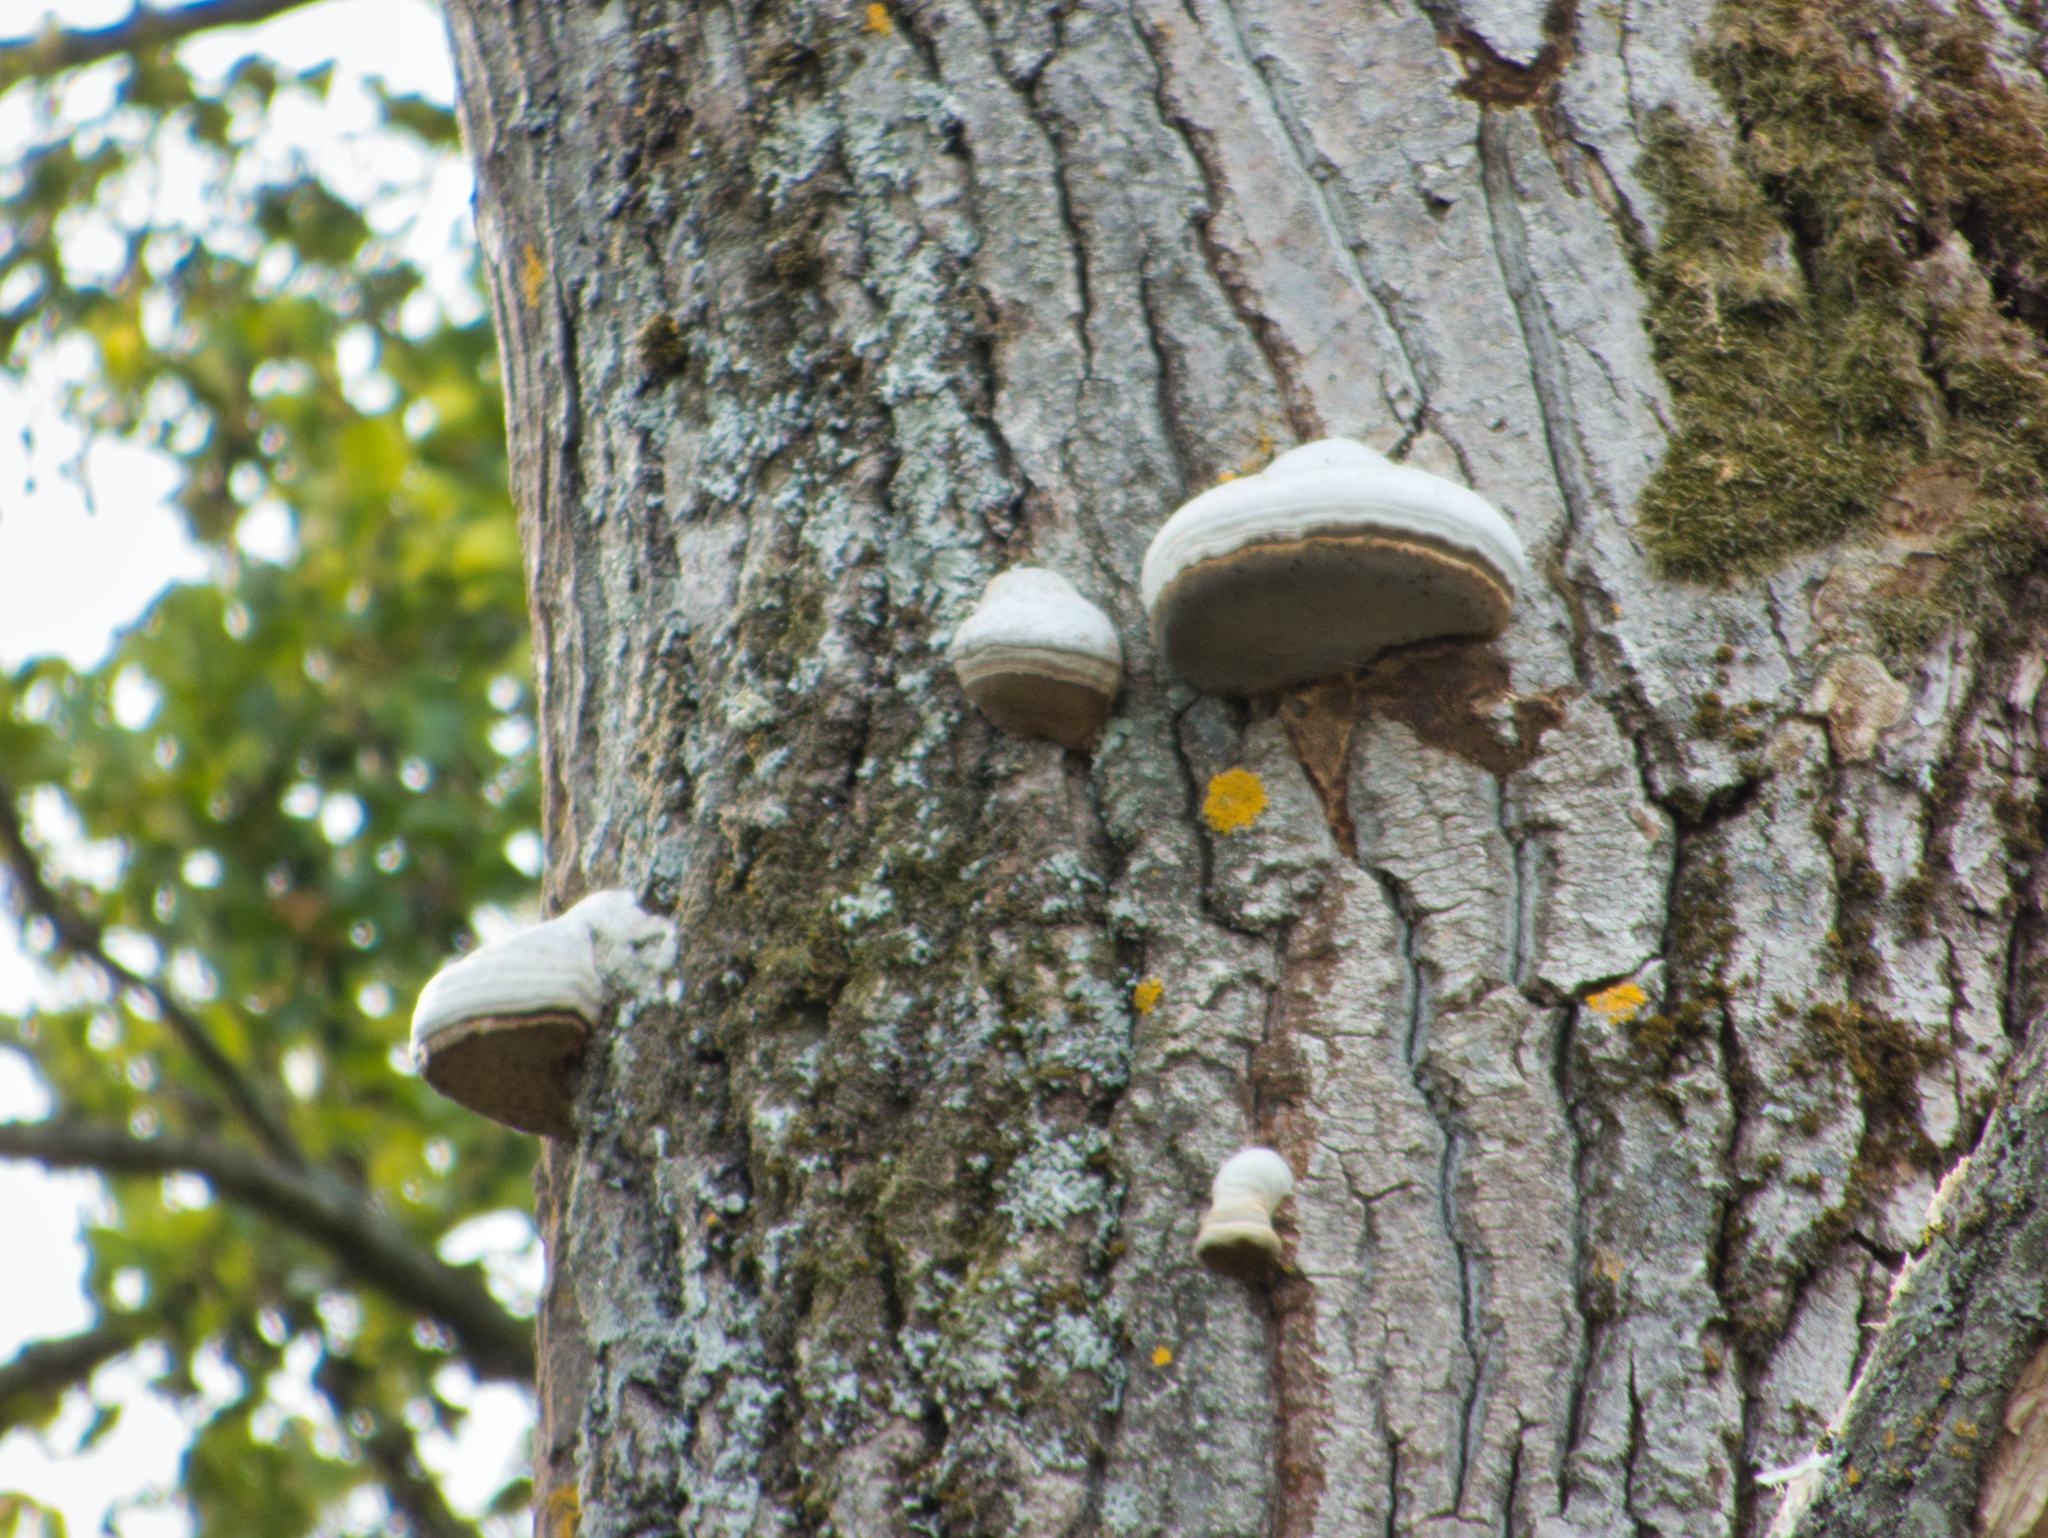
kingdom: Fungi
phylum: Basidiomycota
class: Agaricomycetes
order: Polyporales
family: Polyporaceae
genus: Fomes
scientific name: Fomes fomentarius
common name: Hoof fungus
